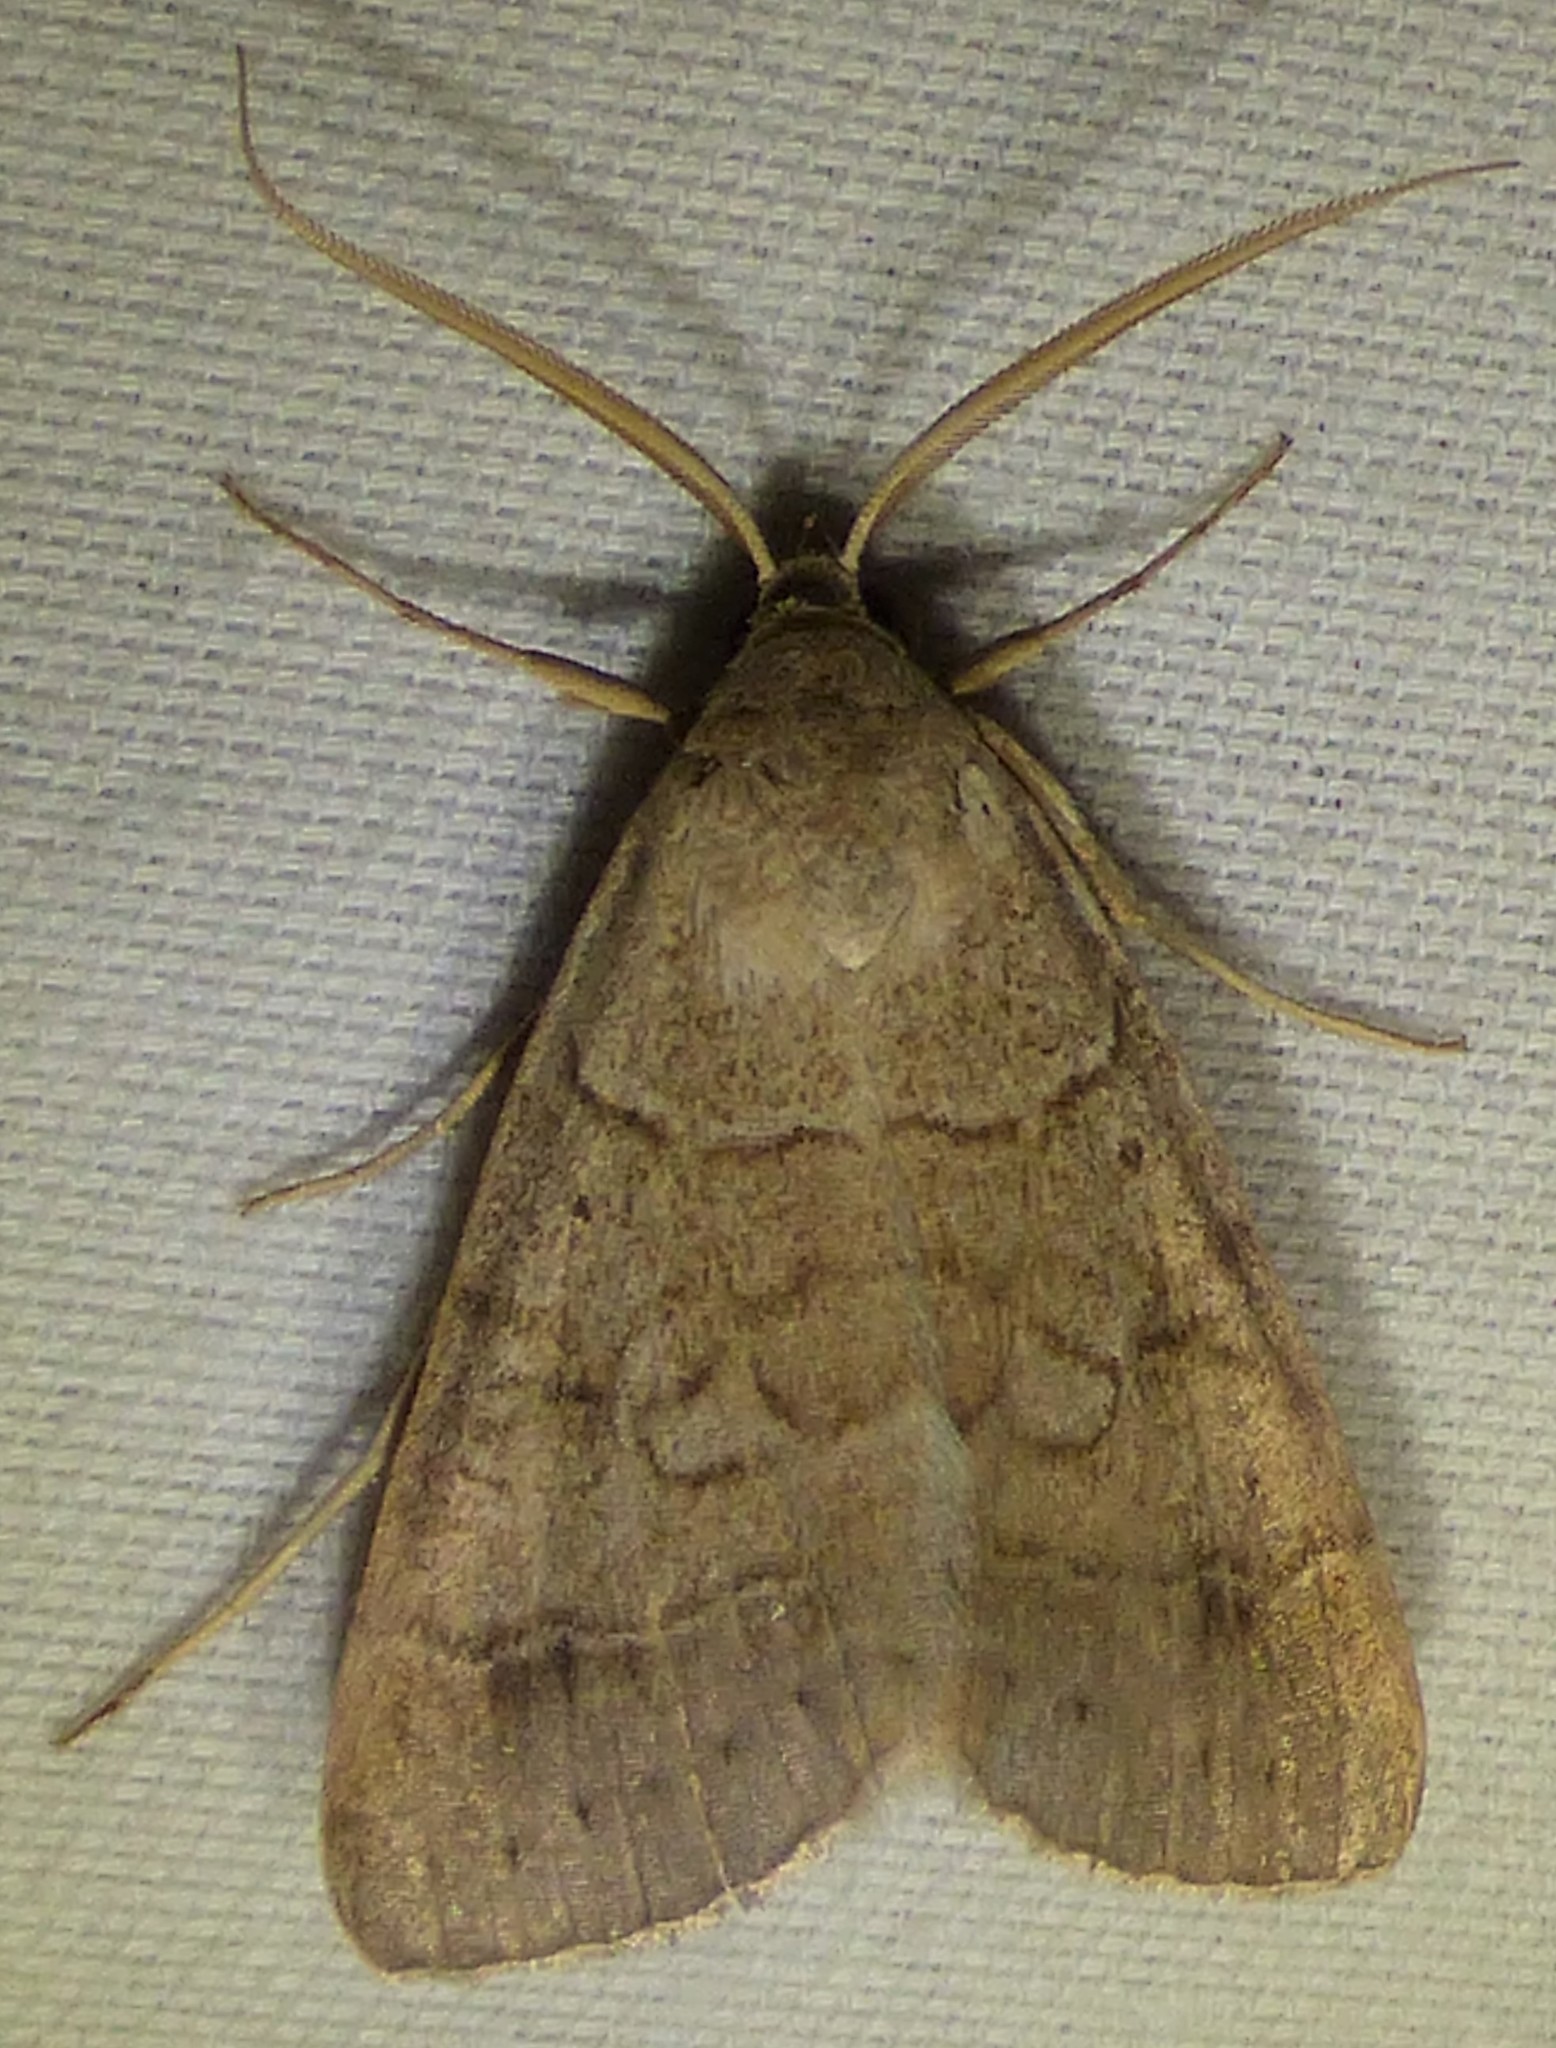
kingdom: Animalia
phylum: Arthropoda
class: Insecta
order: Lepidoptera
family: Erebidae
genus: Caenurgia
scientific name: Caenurgia chloropha
